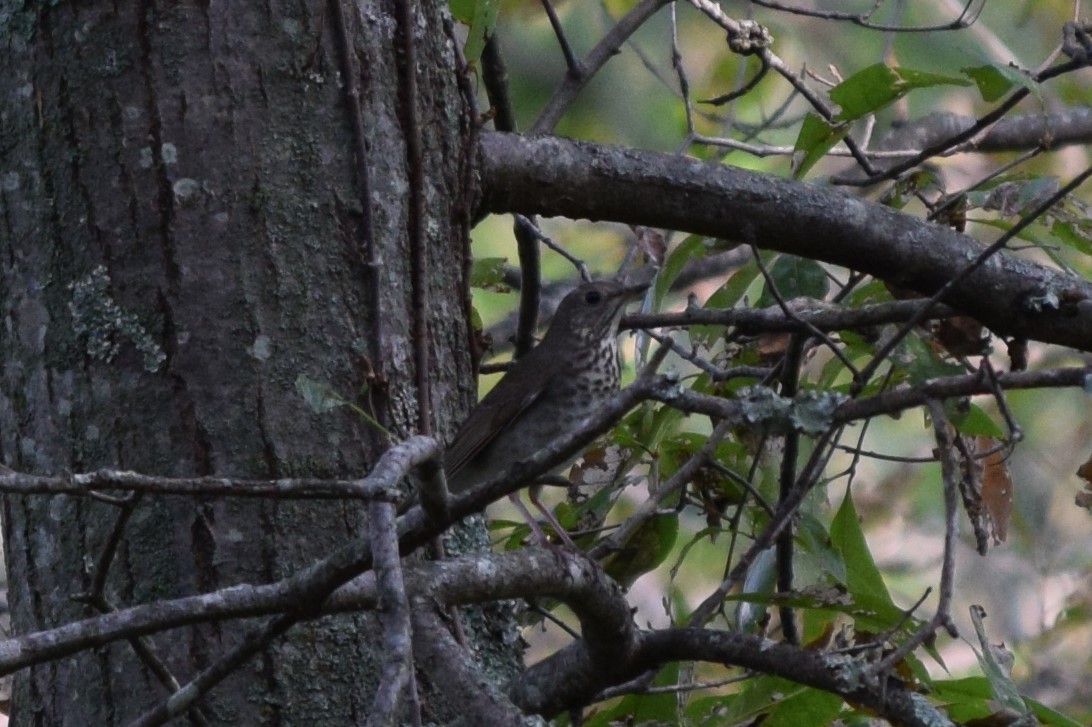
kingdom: Animalia
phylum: Chordata
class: Aves
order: Passeriformes
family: Turdidae
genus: Catharus
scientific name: Catharus minimus
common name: Grey-cheeked thrush
